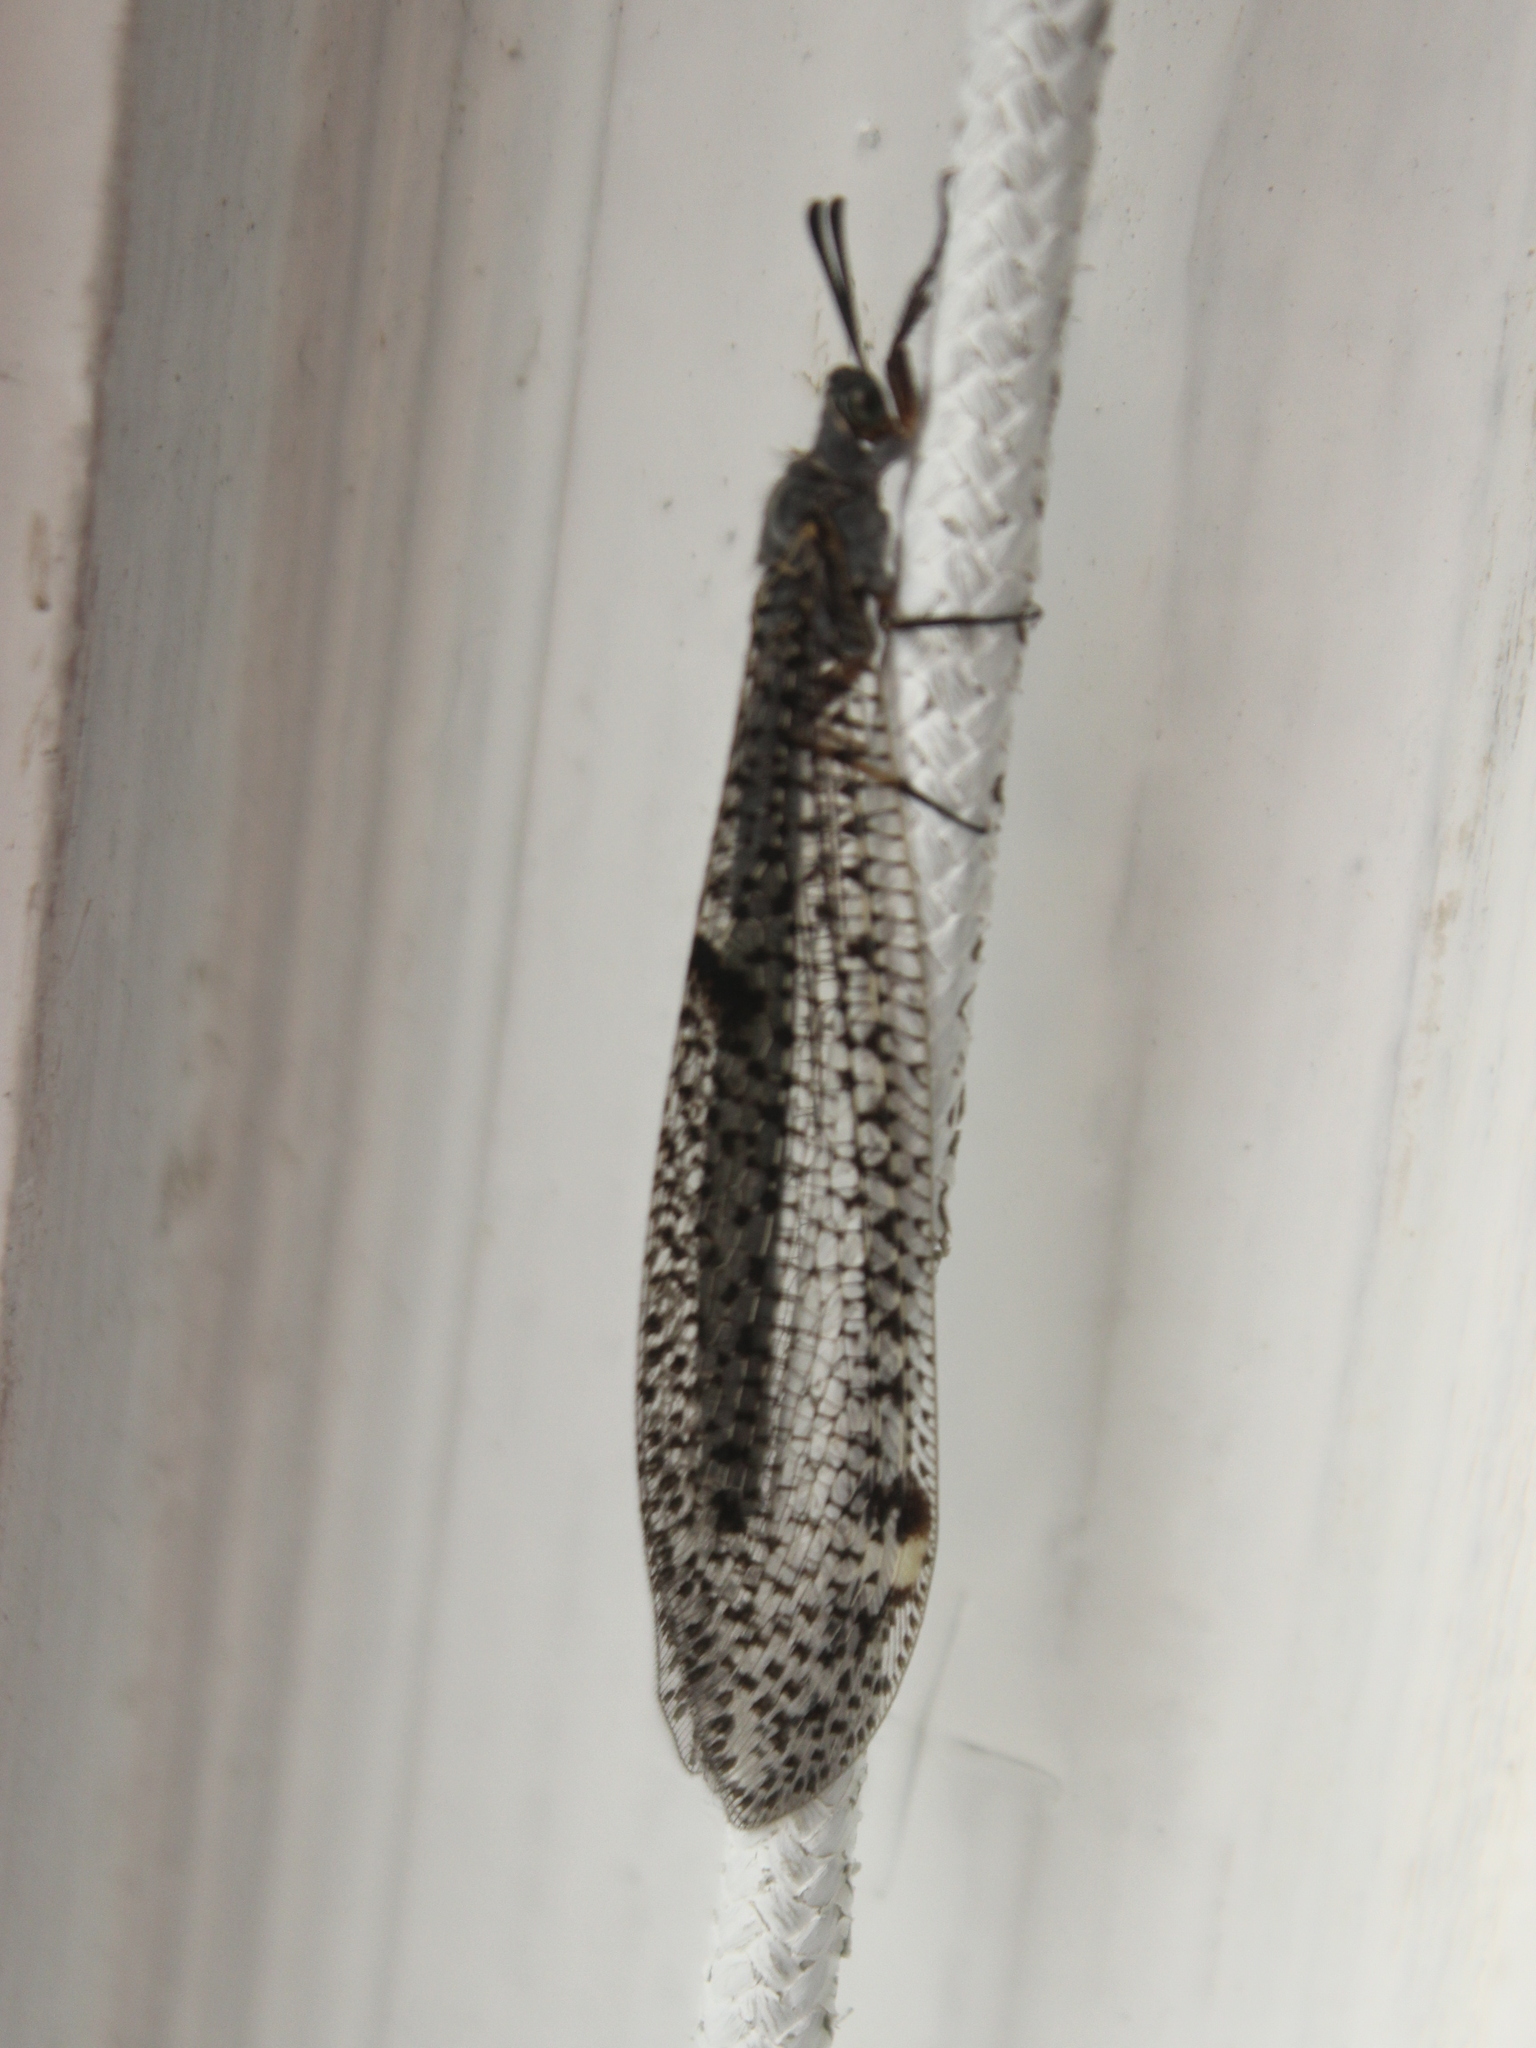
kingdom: Animalia
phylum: Arthropoda
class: Insecta
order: Neuroptera
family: Myrmeleontidae
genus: Weeleus
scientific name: Weeleus acutus
